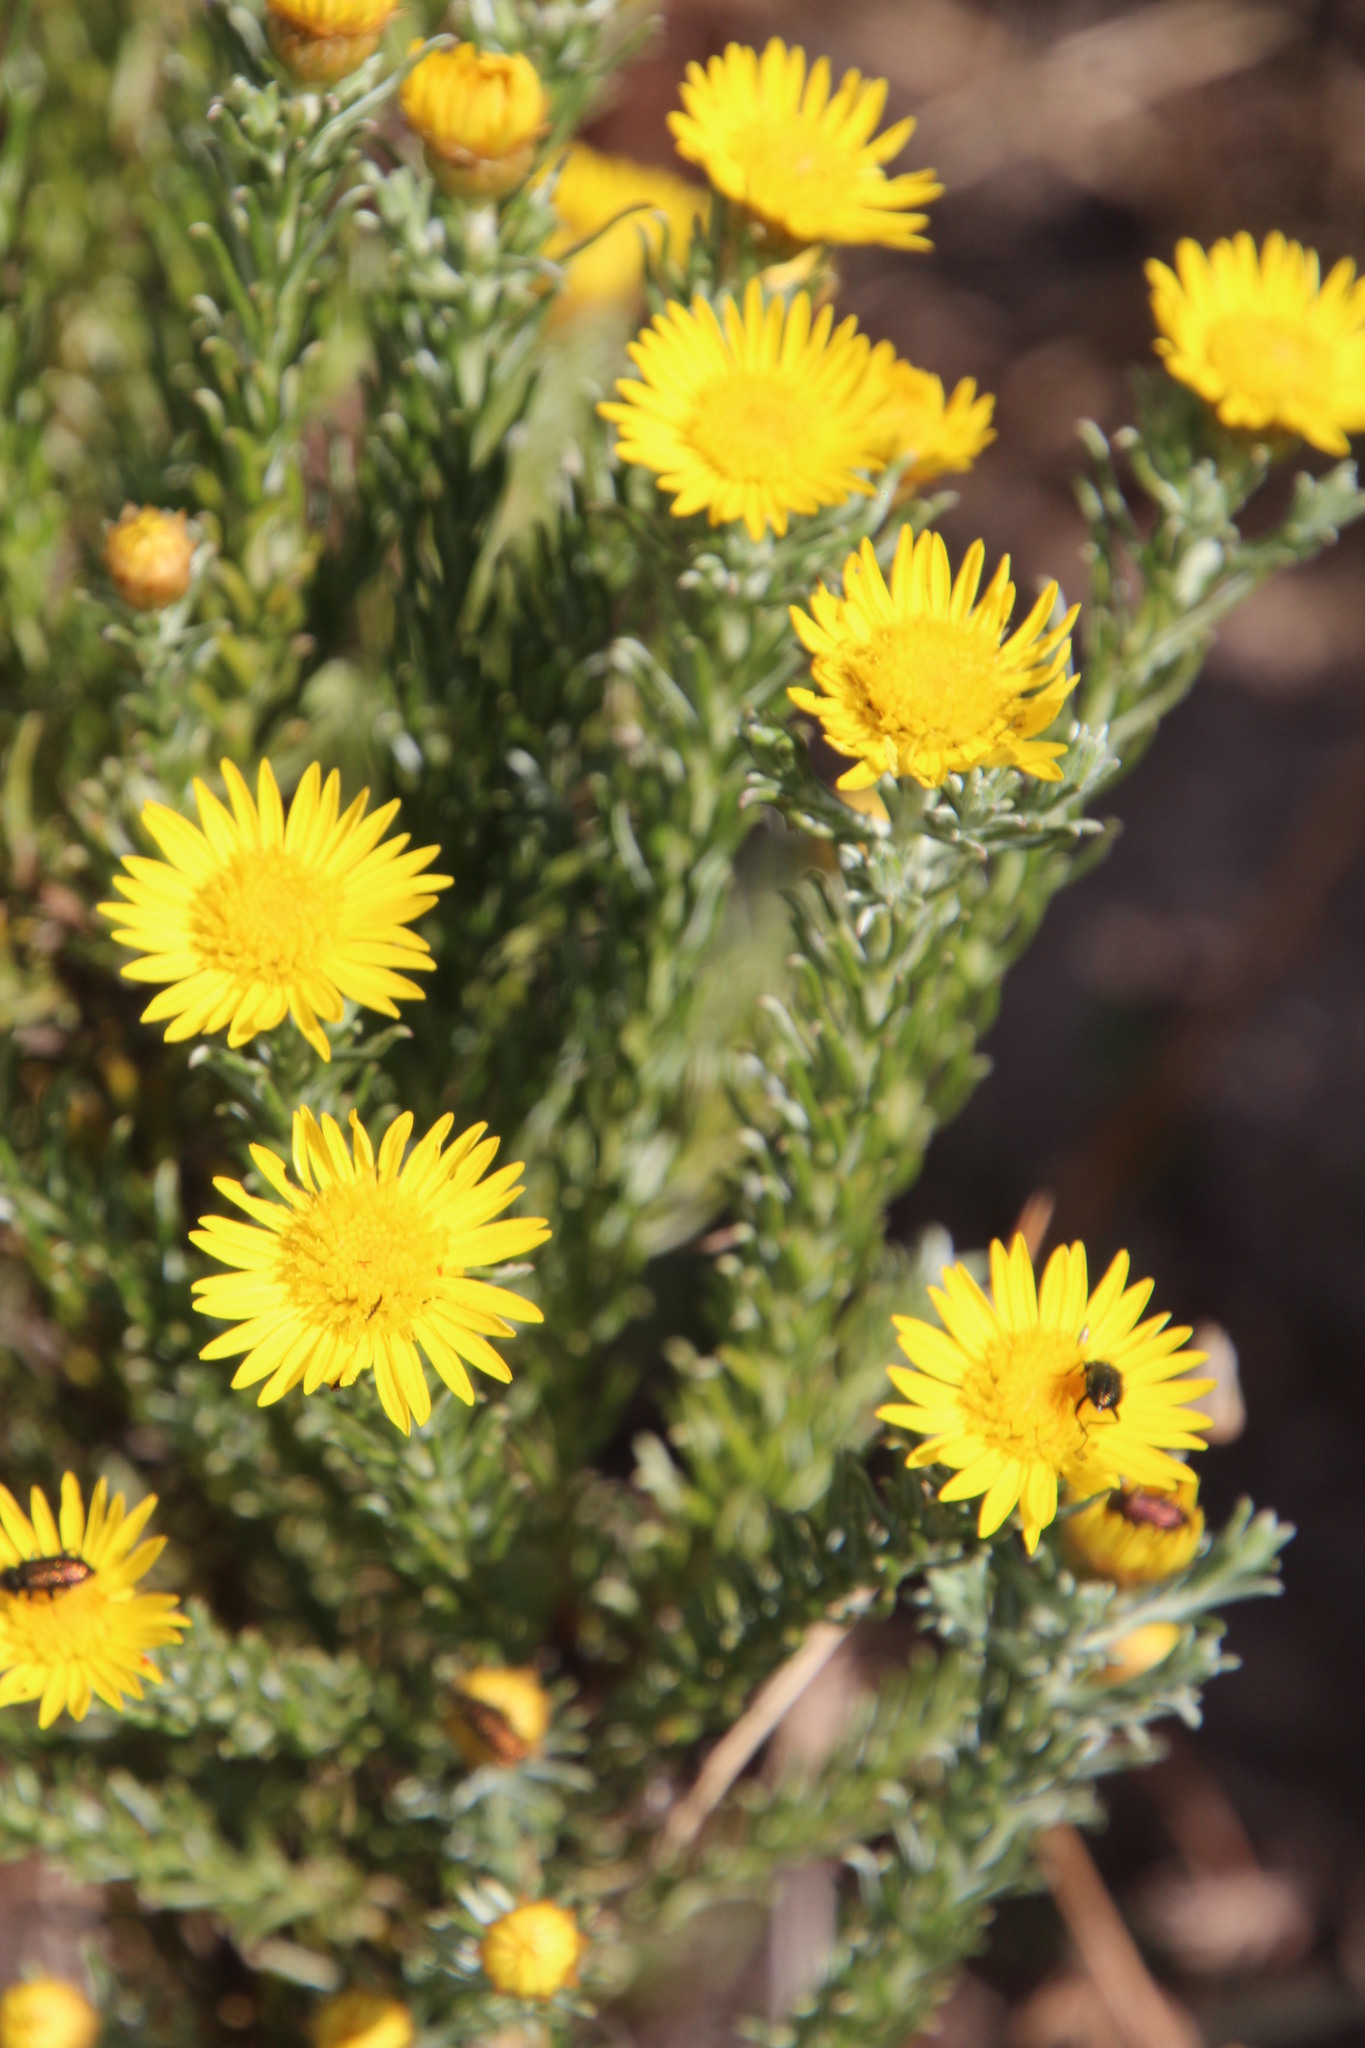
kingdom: Plantae
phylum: Tracheophyta
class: Magnoliopsida
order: Asterales
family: Asteraceae
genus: Oedera
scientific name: Oedera fruticosa
